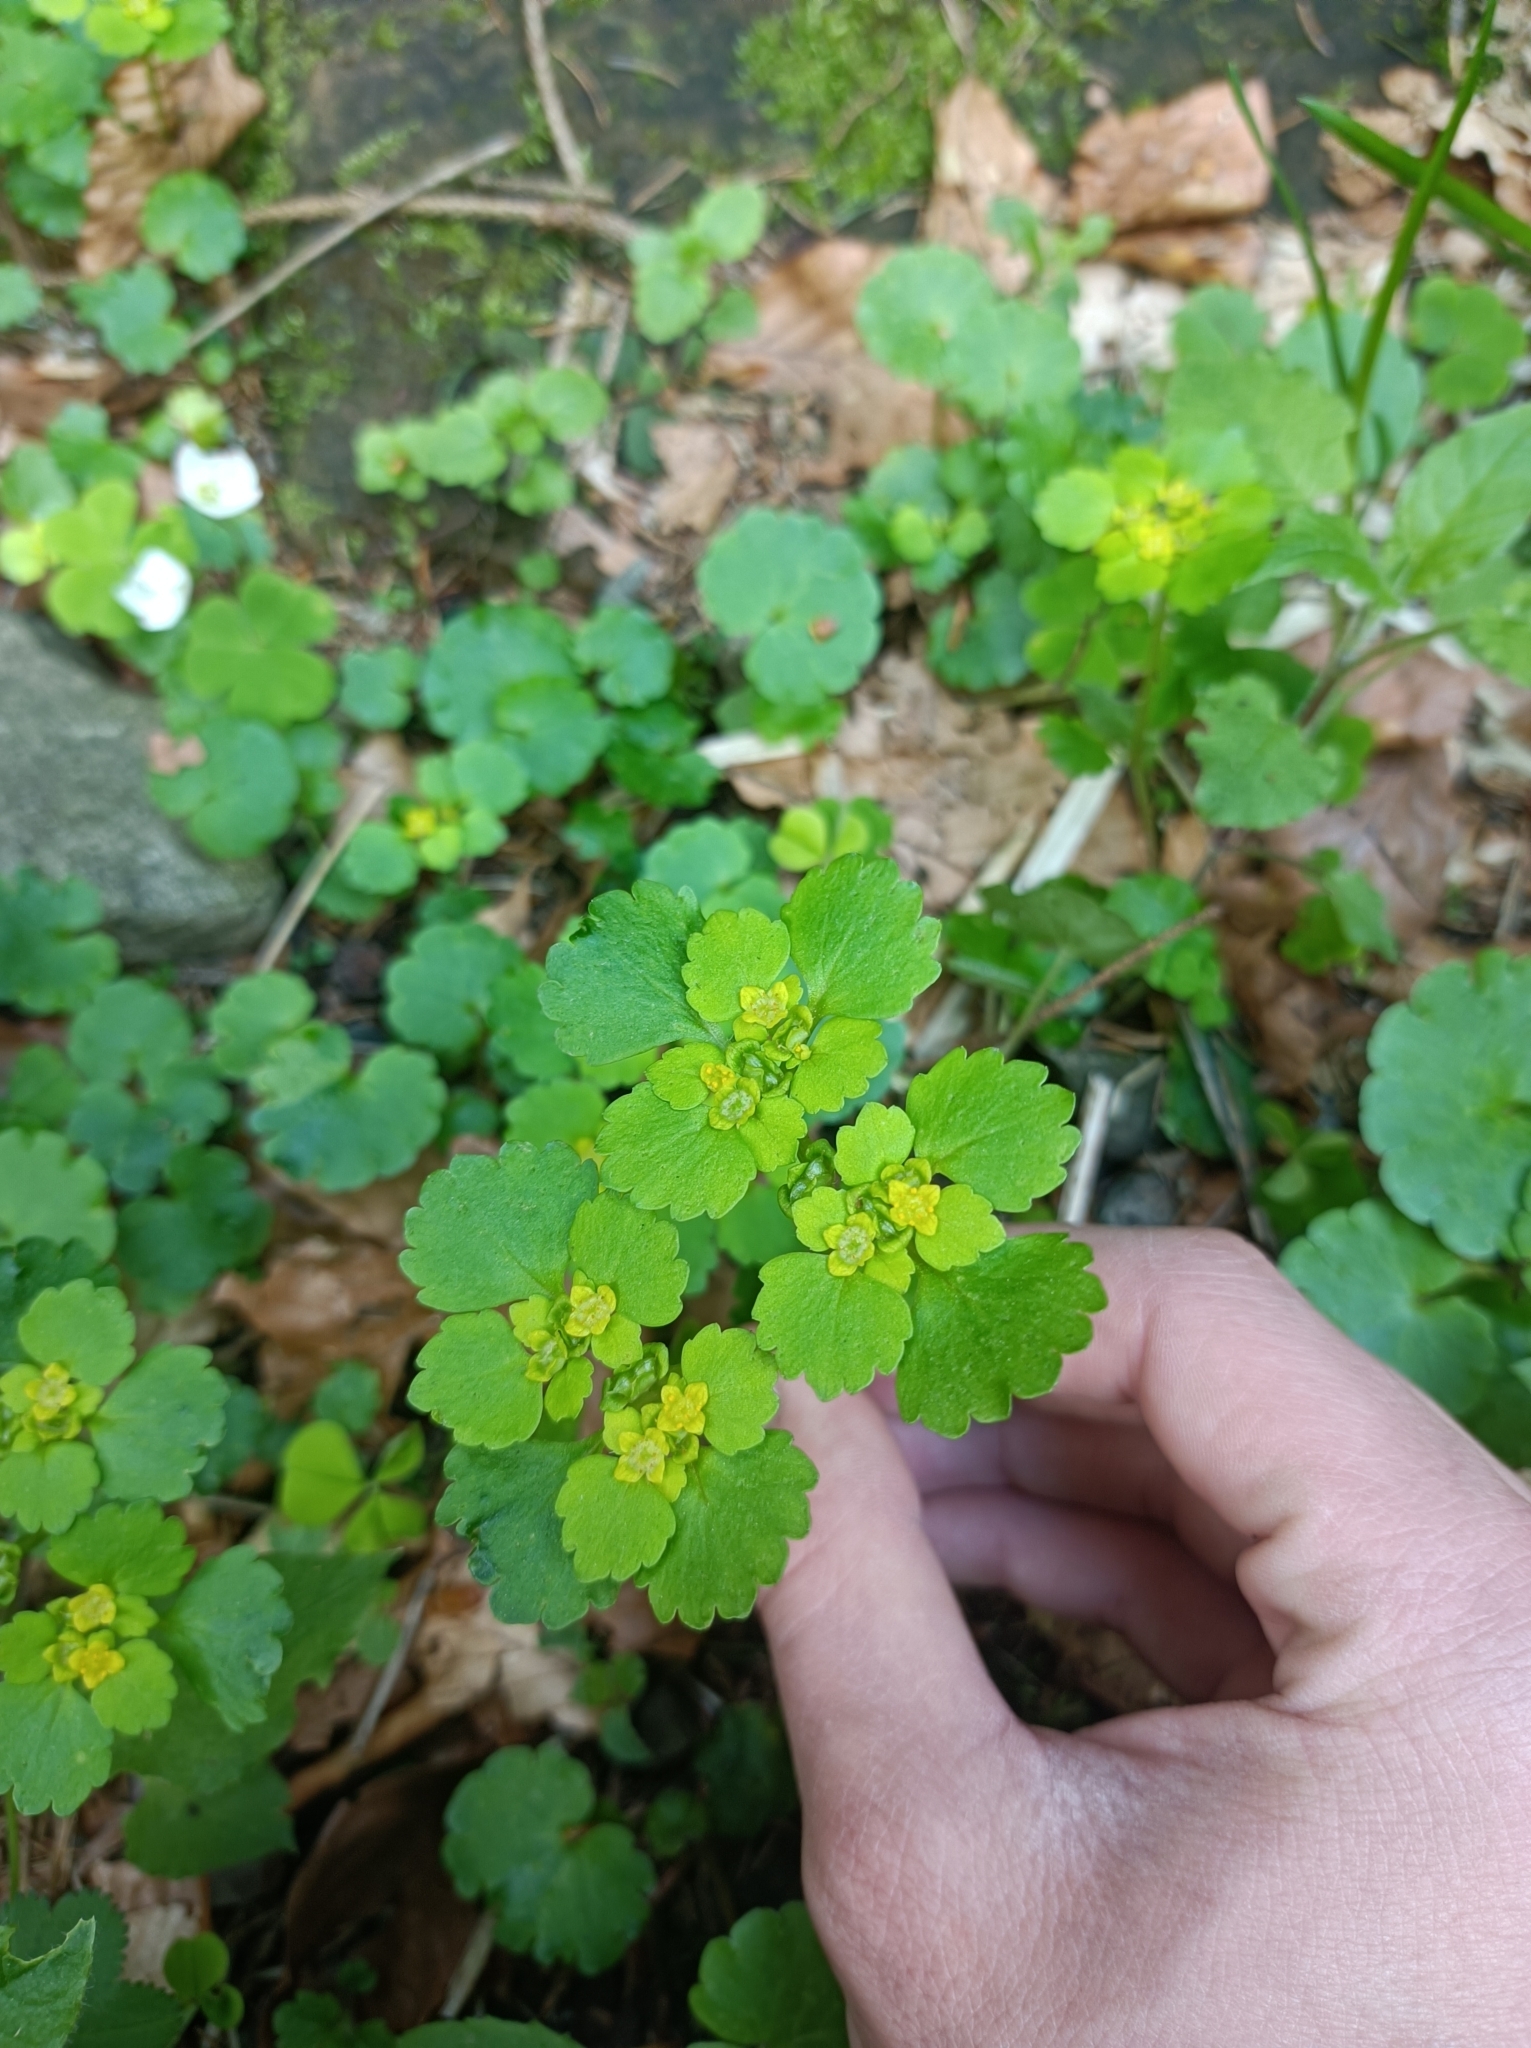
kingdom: Plantae
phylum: Tracheophyta
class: Magnoliopsida
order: Saxifragales
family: Saxifragaceae
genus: Chrysosplenium
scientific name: Chrysosplenium alternifolium
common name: Alternate-leaved golden-saxifrage
